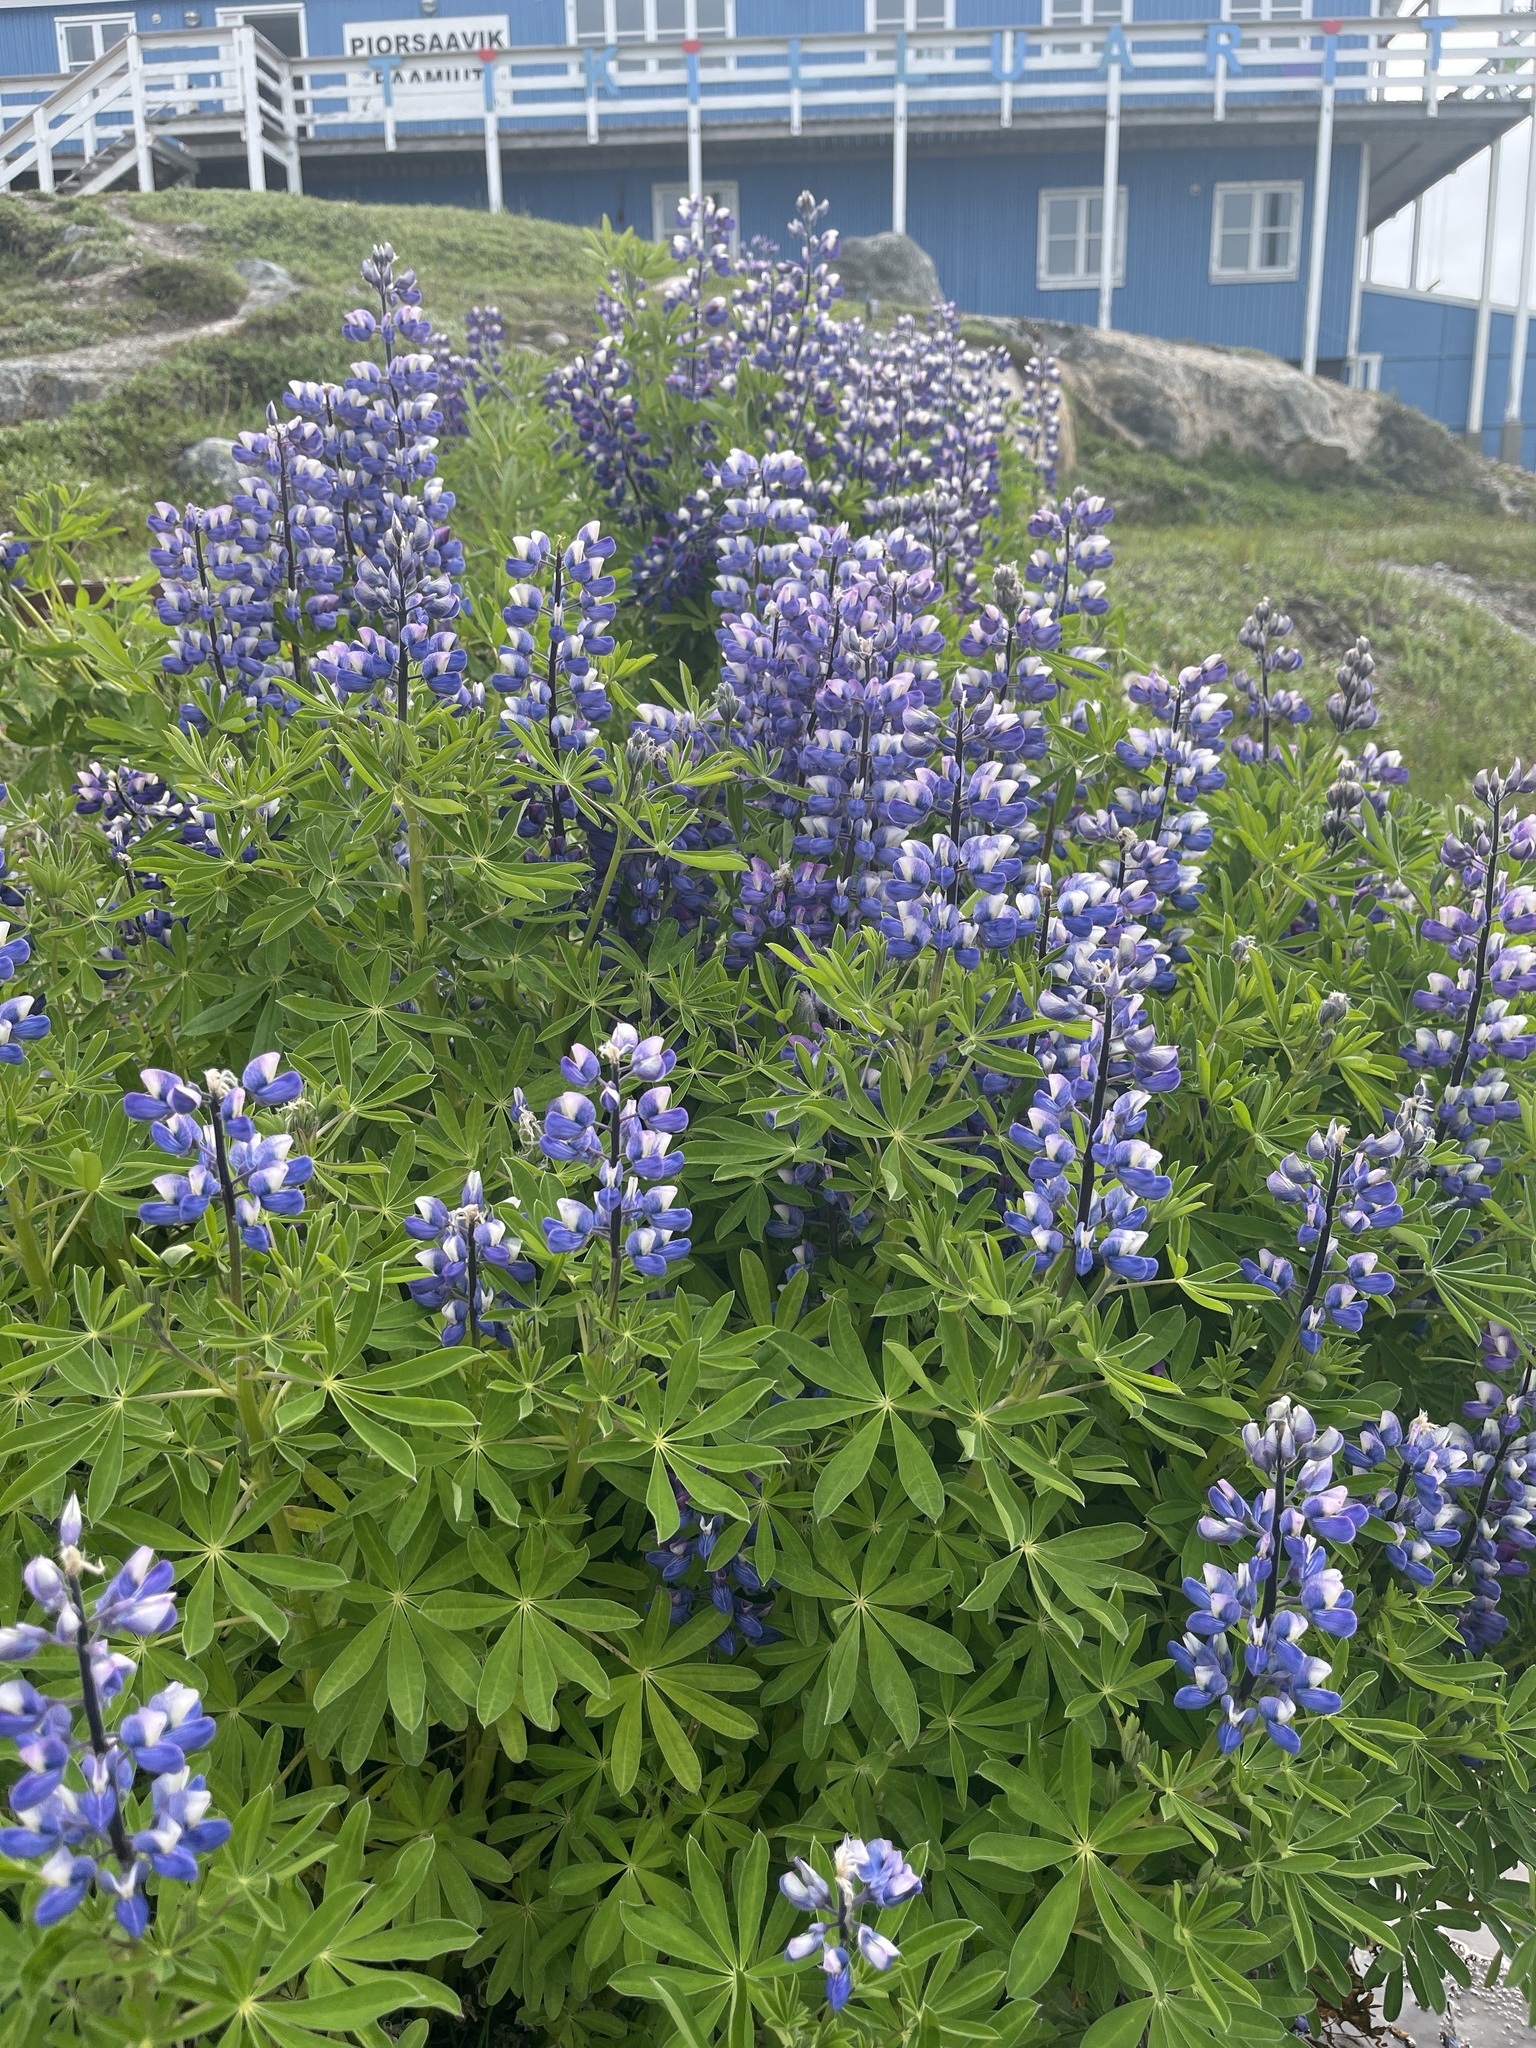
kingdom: Plantae
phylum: Tracheophyta
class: Magnoliopsida
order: Fabales
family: Fabaceae
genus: Lupinus
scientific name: Lupinus nootkatensis
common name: Nootka lupine
